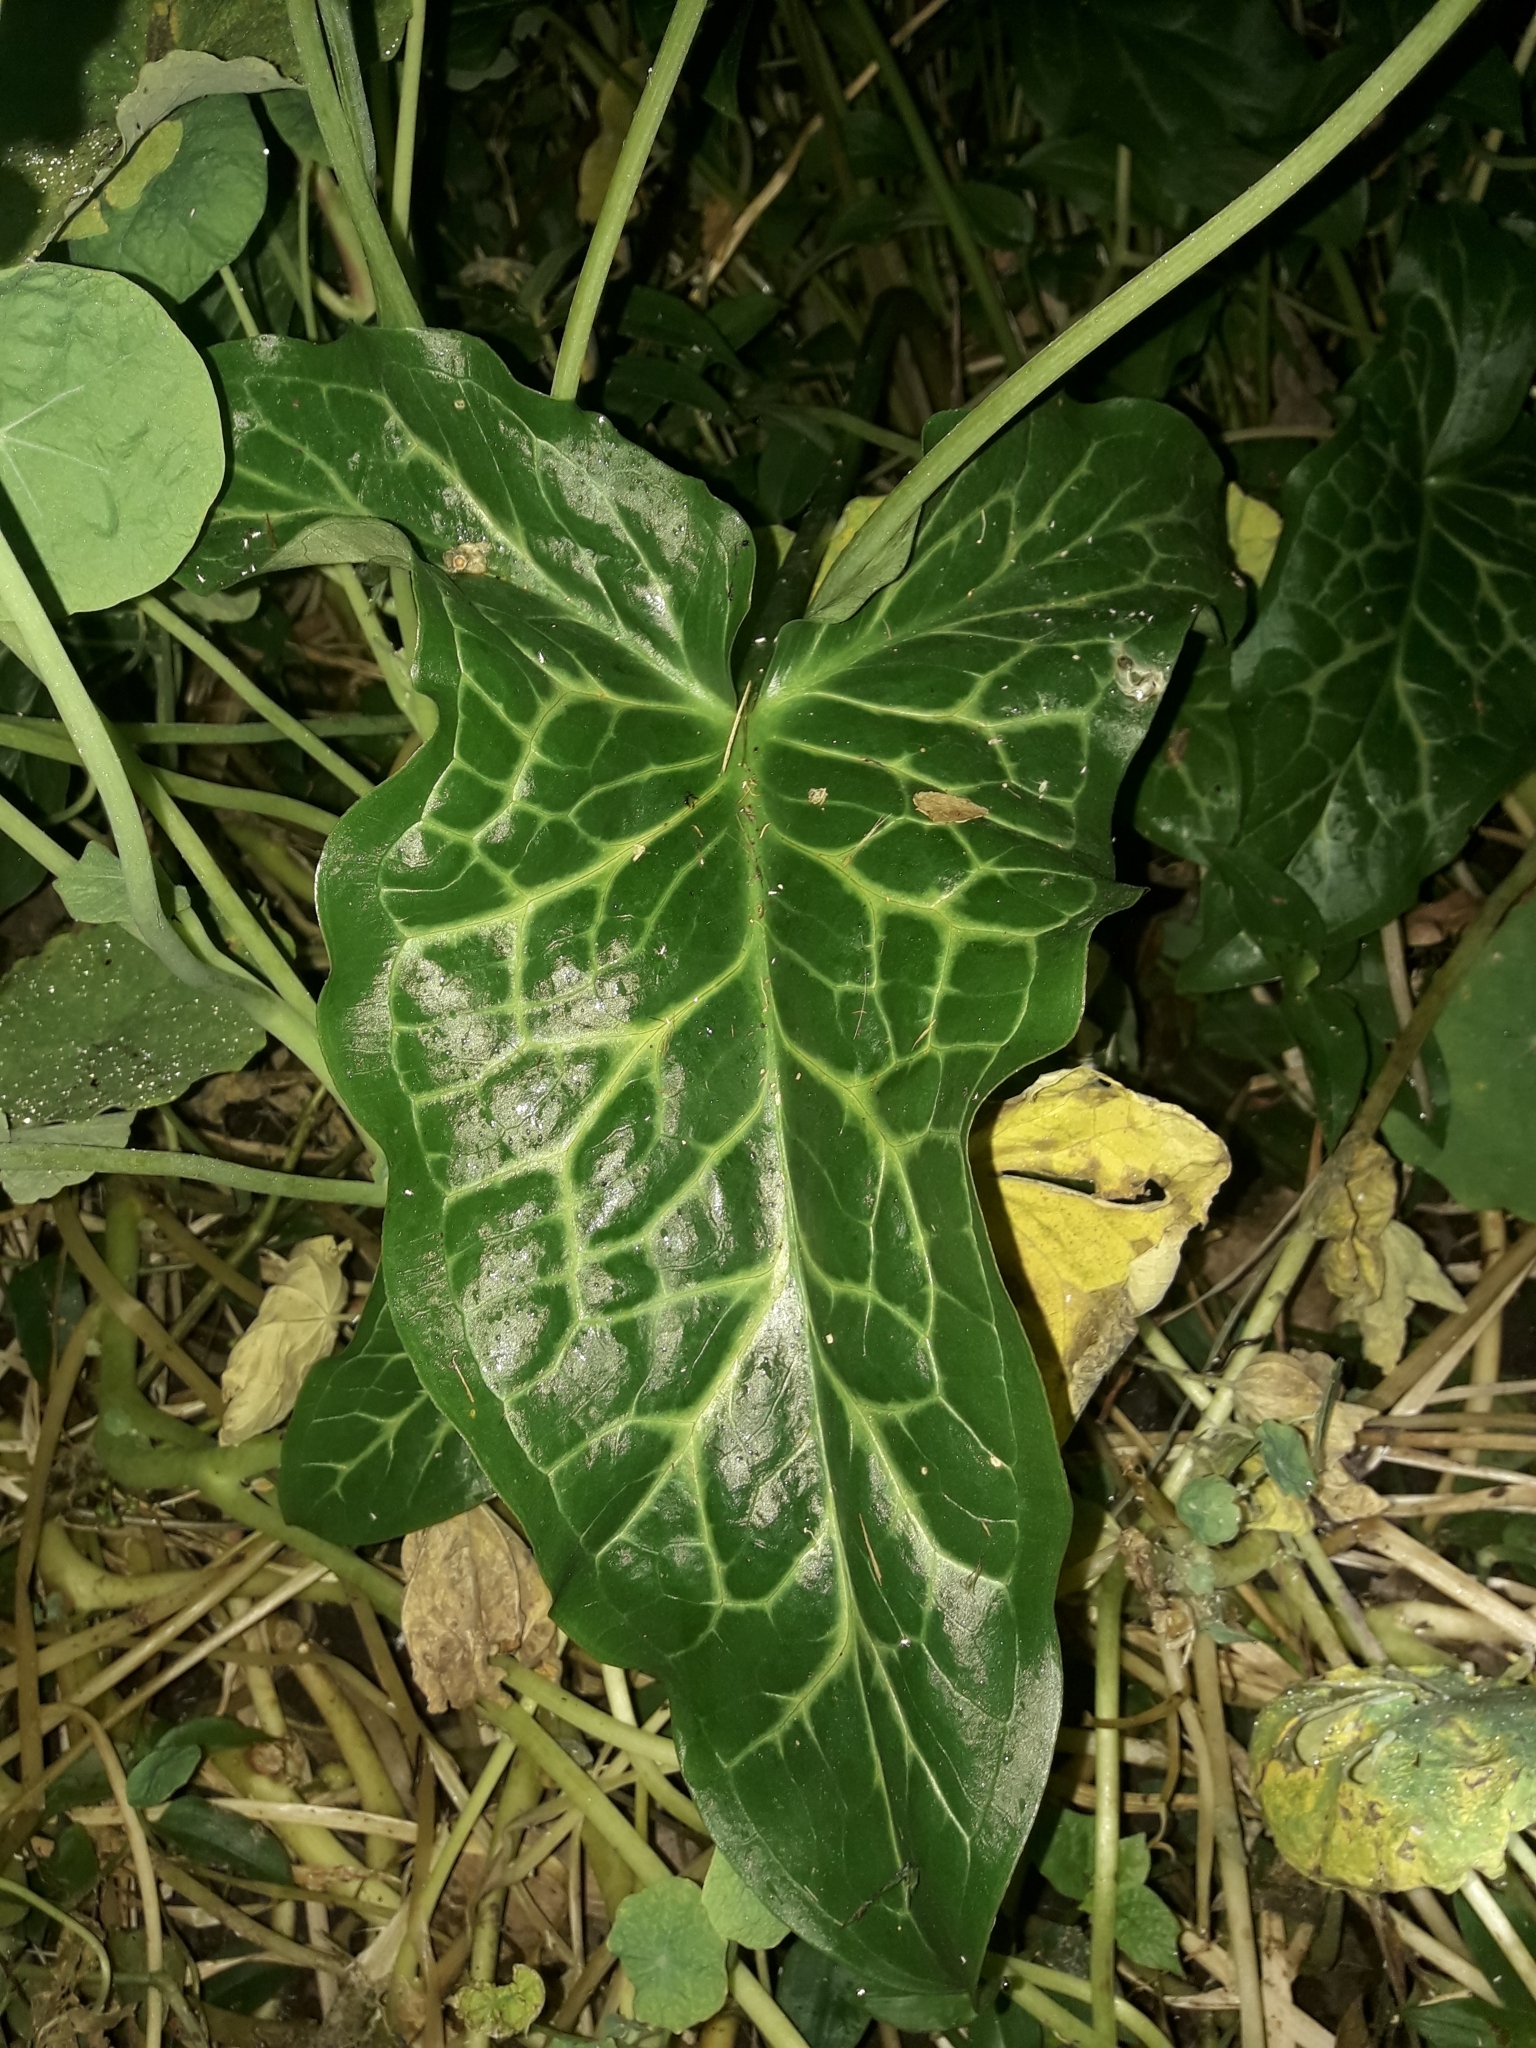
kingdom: Plantae
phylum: Tracheophyta
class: Liliopsida
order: Alismatales
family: Araceae
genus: Arum
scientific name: Arum italicum
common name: Italian lords-and-ladies
